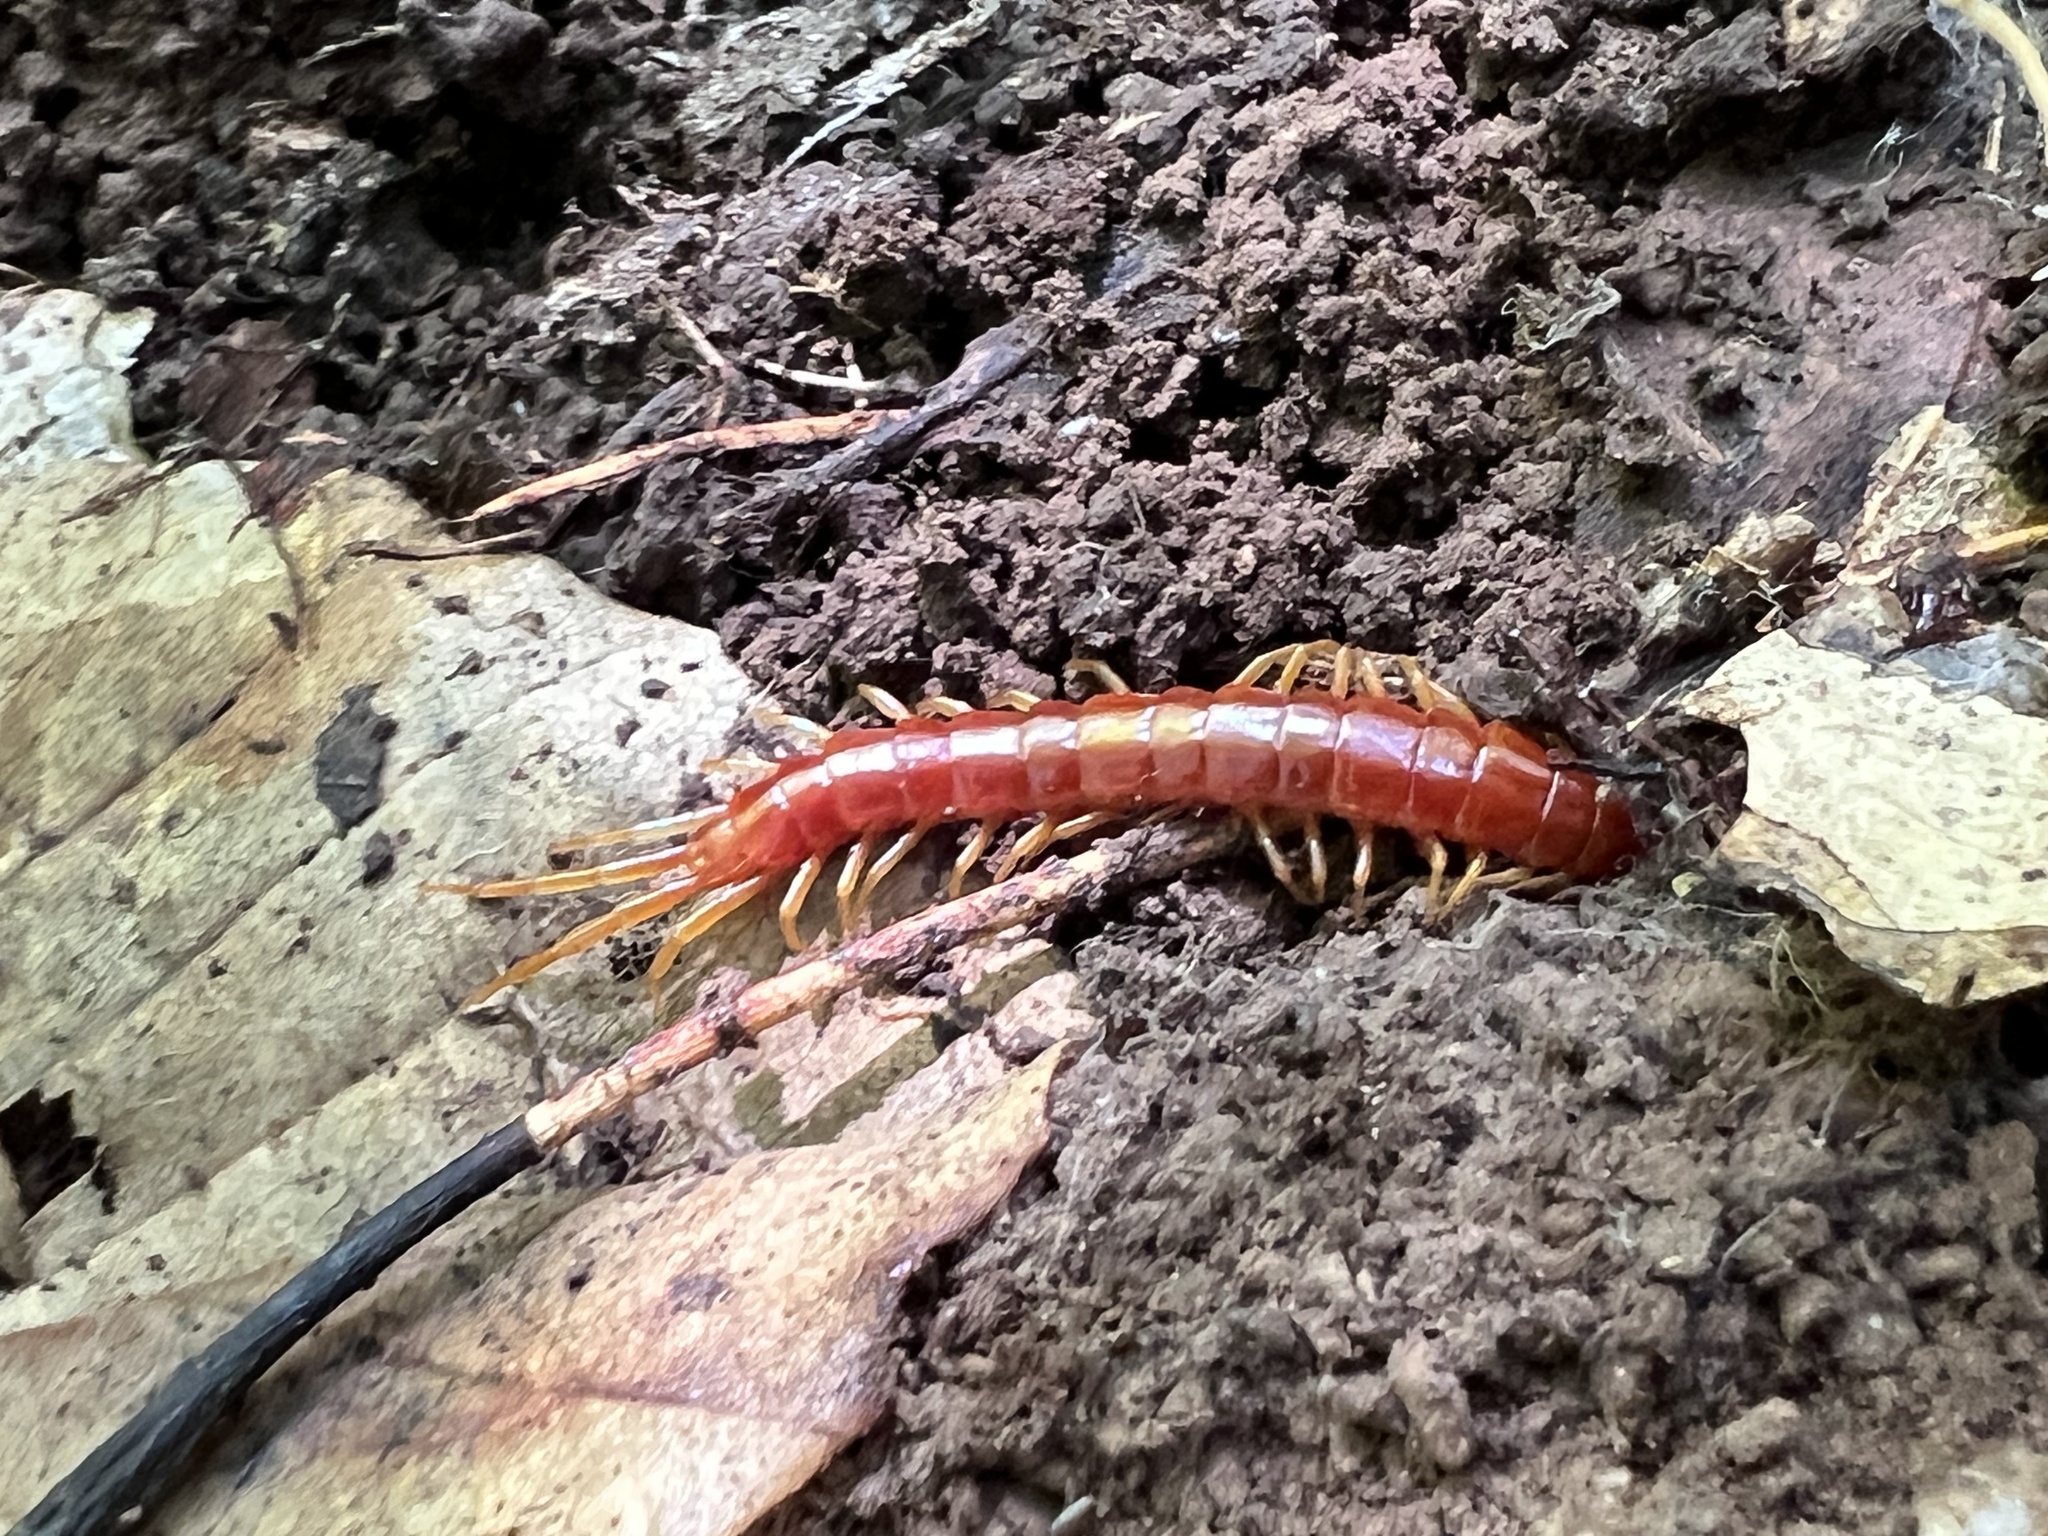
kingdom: Animalia
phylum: Arthropoda
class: Chilopoda
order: Scolopendromorpha
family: Scolopocryptopidae
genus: Scolopocryptops
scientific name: Scolopocryptops sexspinosus
